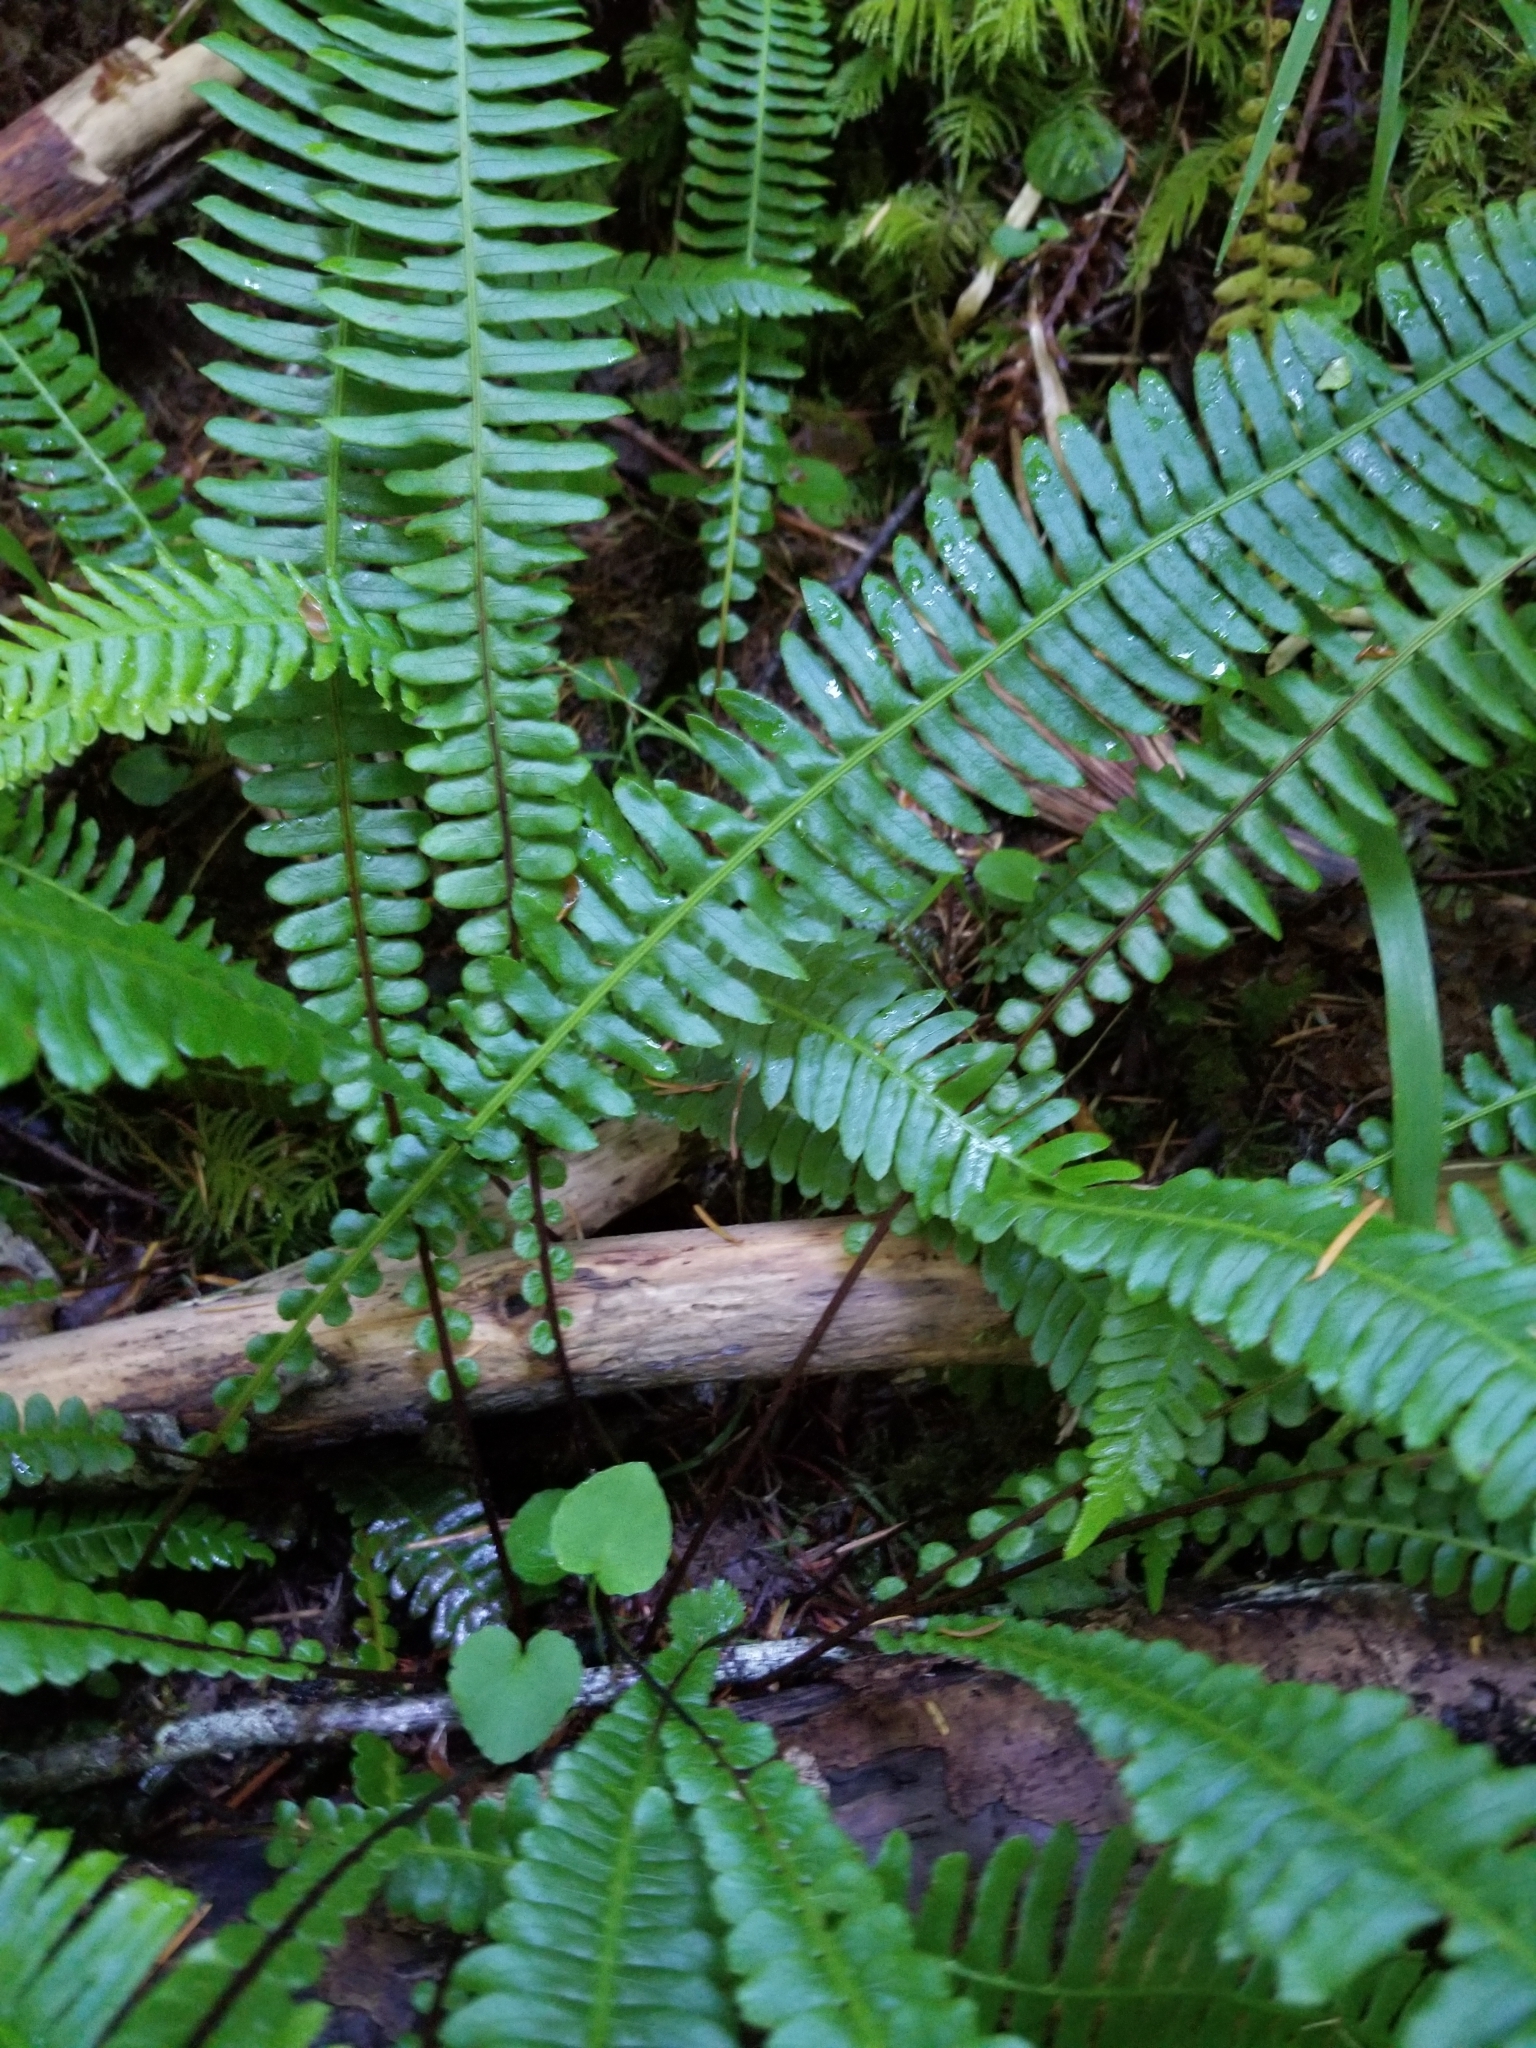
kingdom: Plantae
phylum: Tracheophyta
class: Polypodiopsida
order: Polypodiales
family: Blechnaceae
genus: Struthiopteris
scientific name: Struthiopteris spicant
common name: Deer fern
